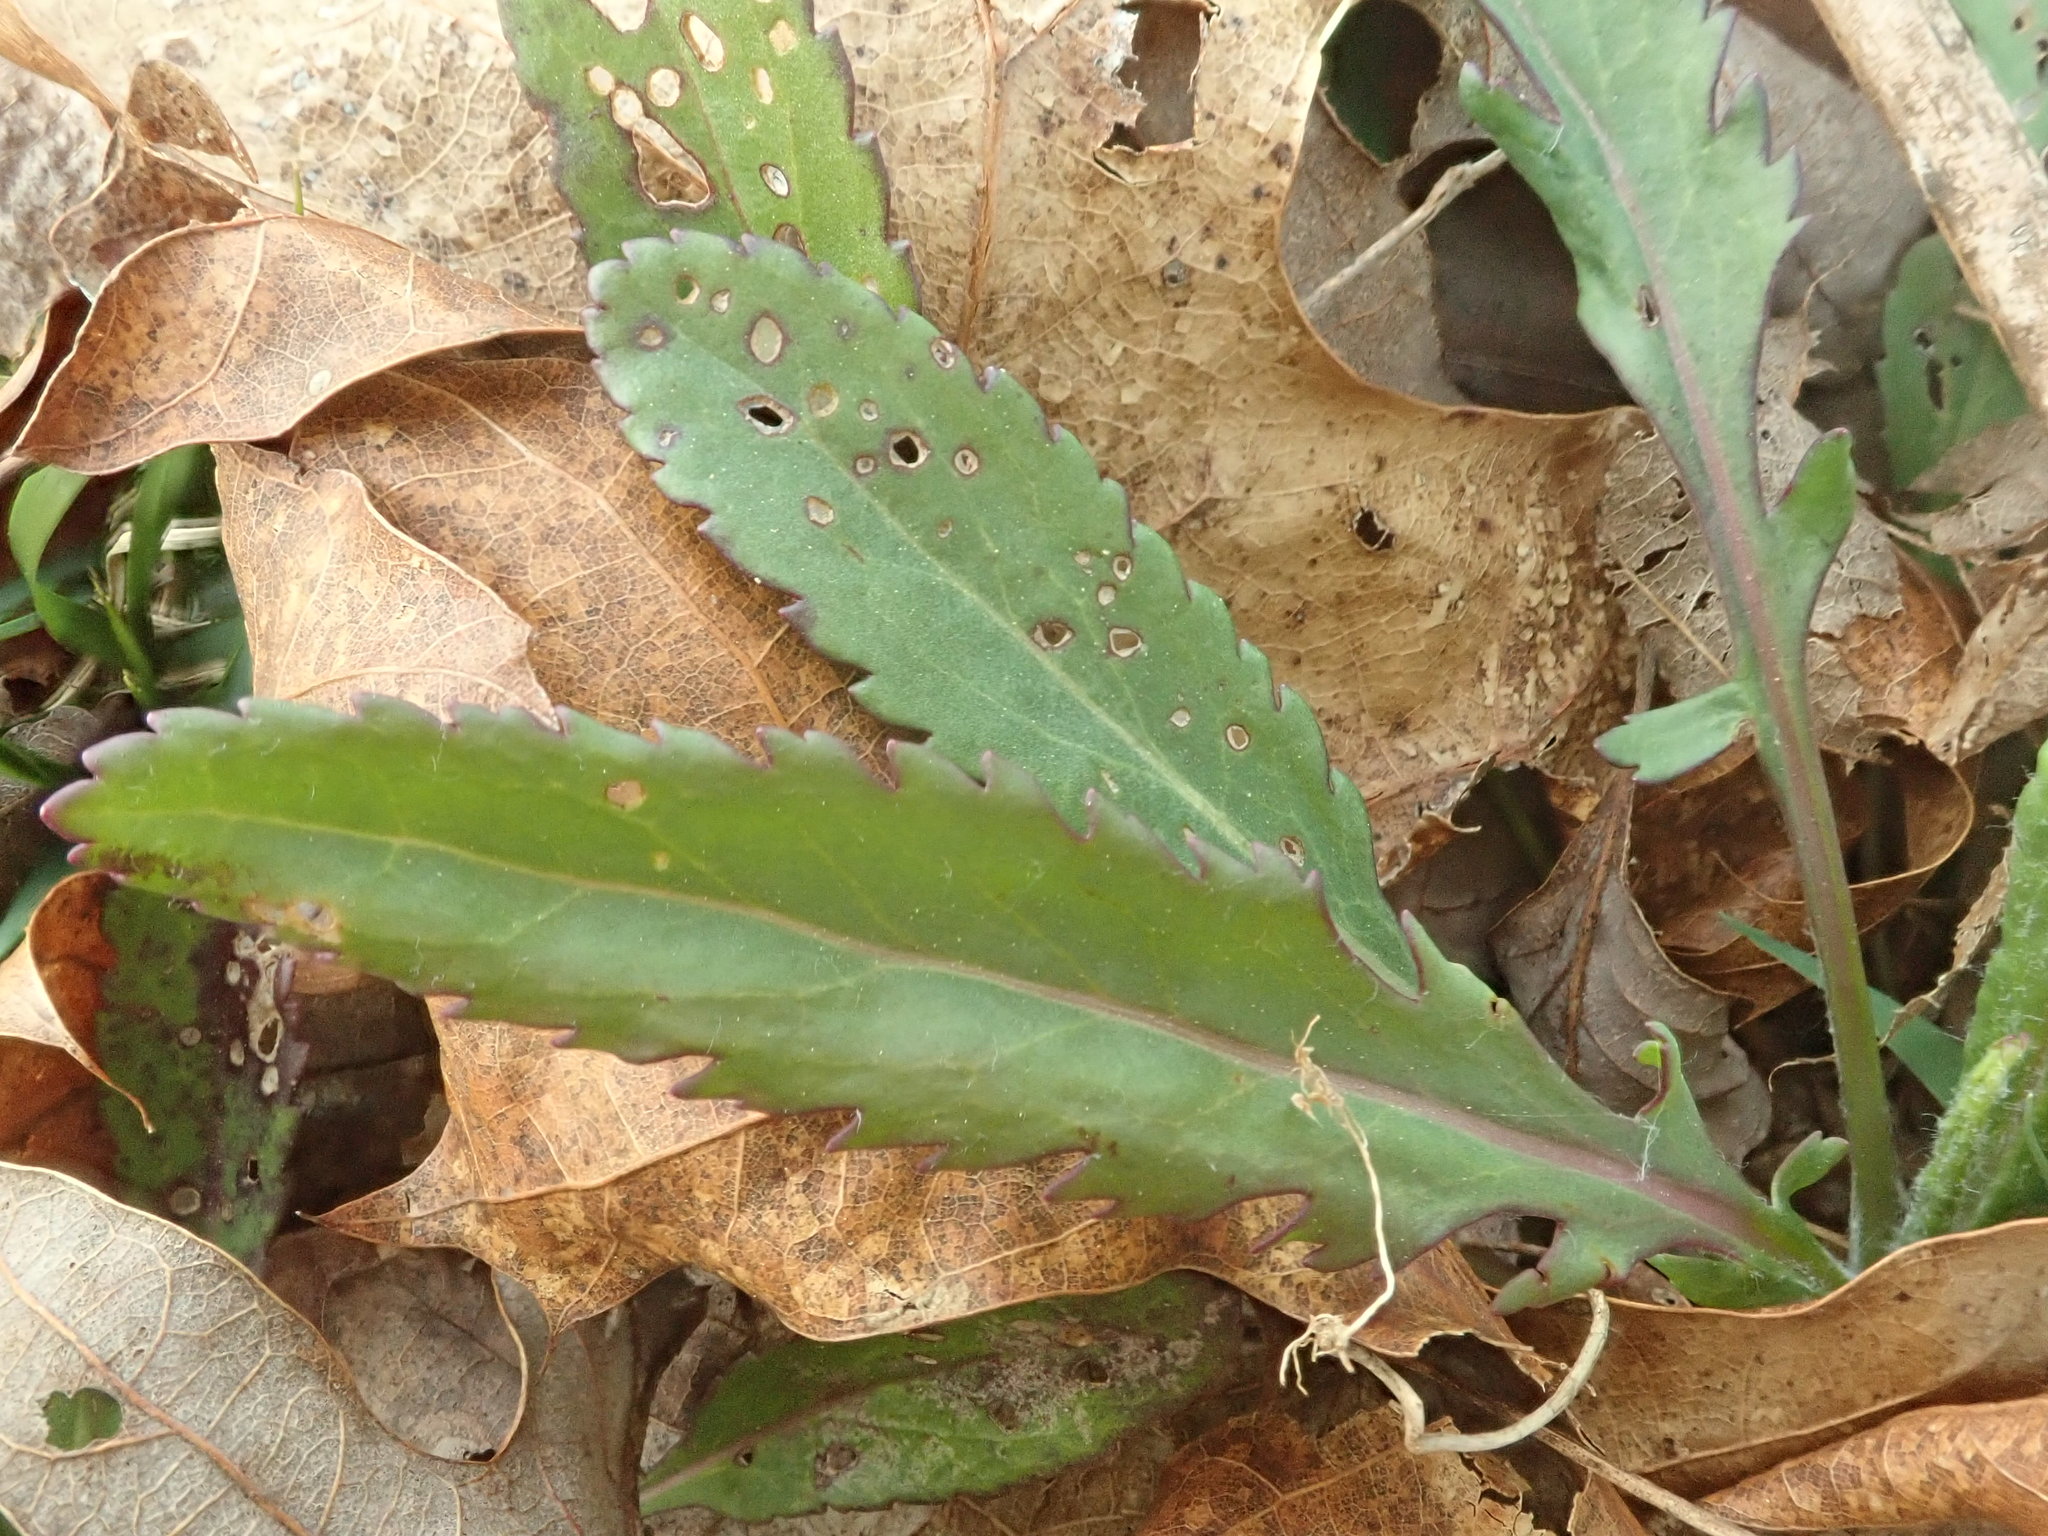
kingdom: Plantae
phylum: Tracheophyta
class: Magnoliopsida
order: Asterales
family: Asteraceae
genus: Packera
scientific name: Packera anonyma
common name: Small ragwort
